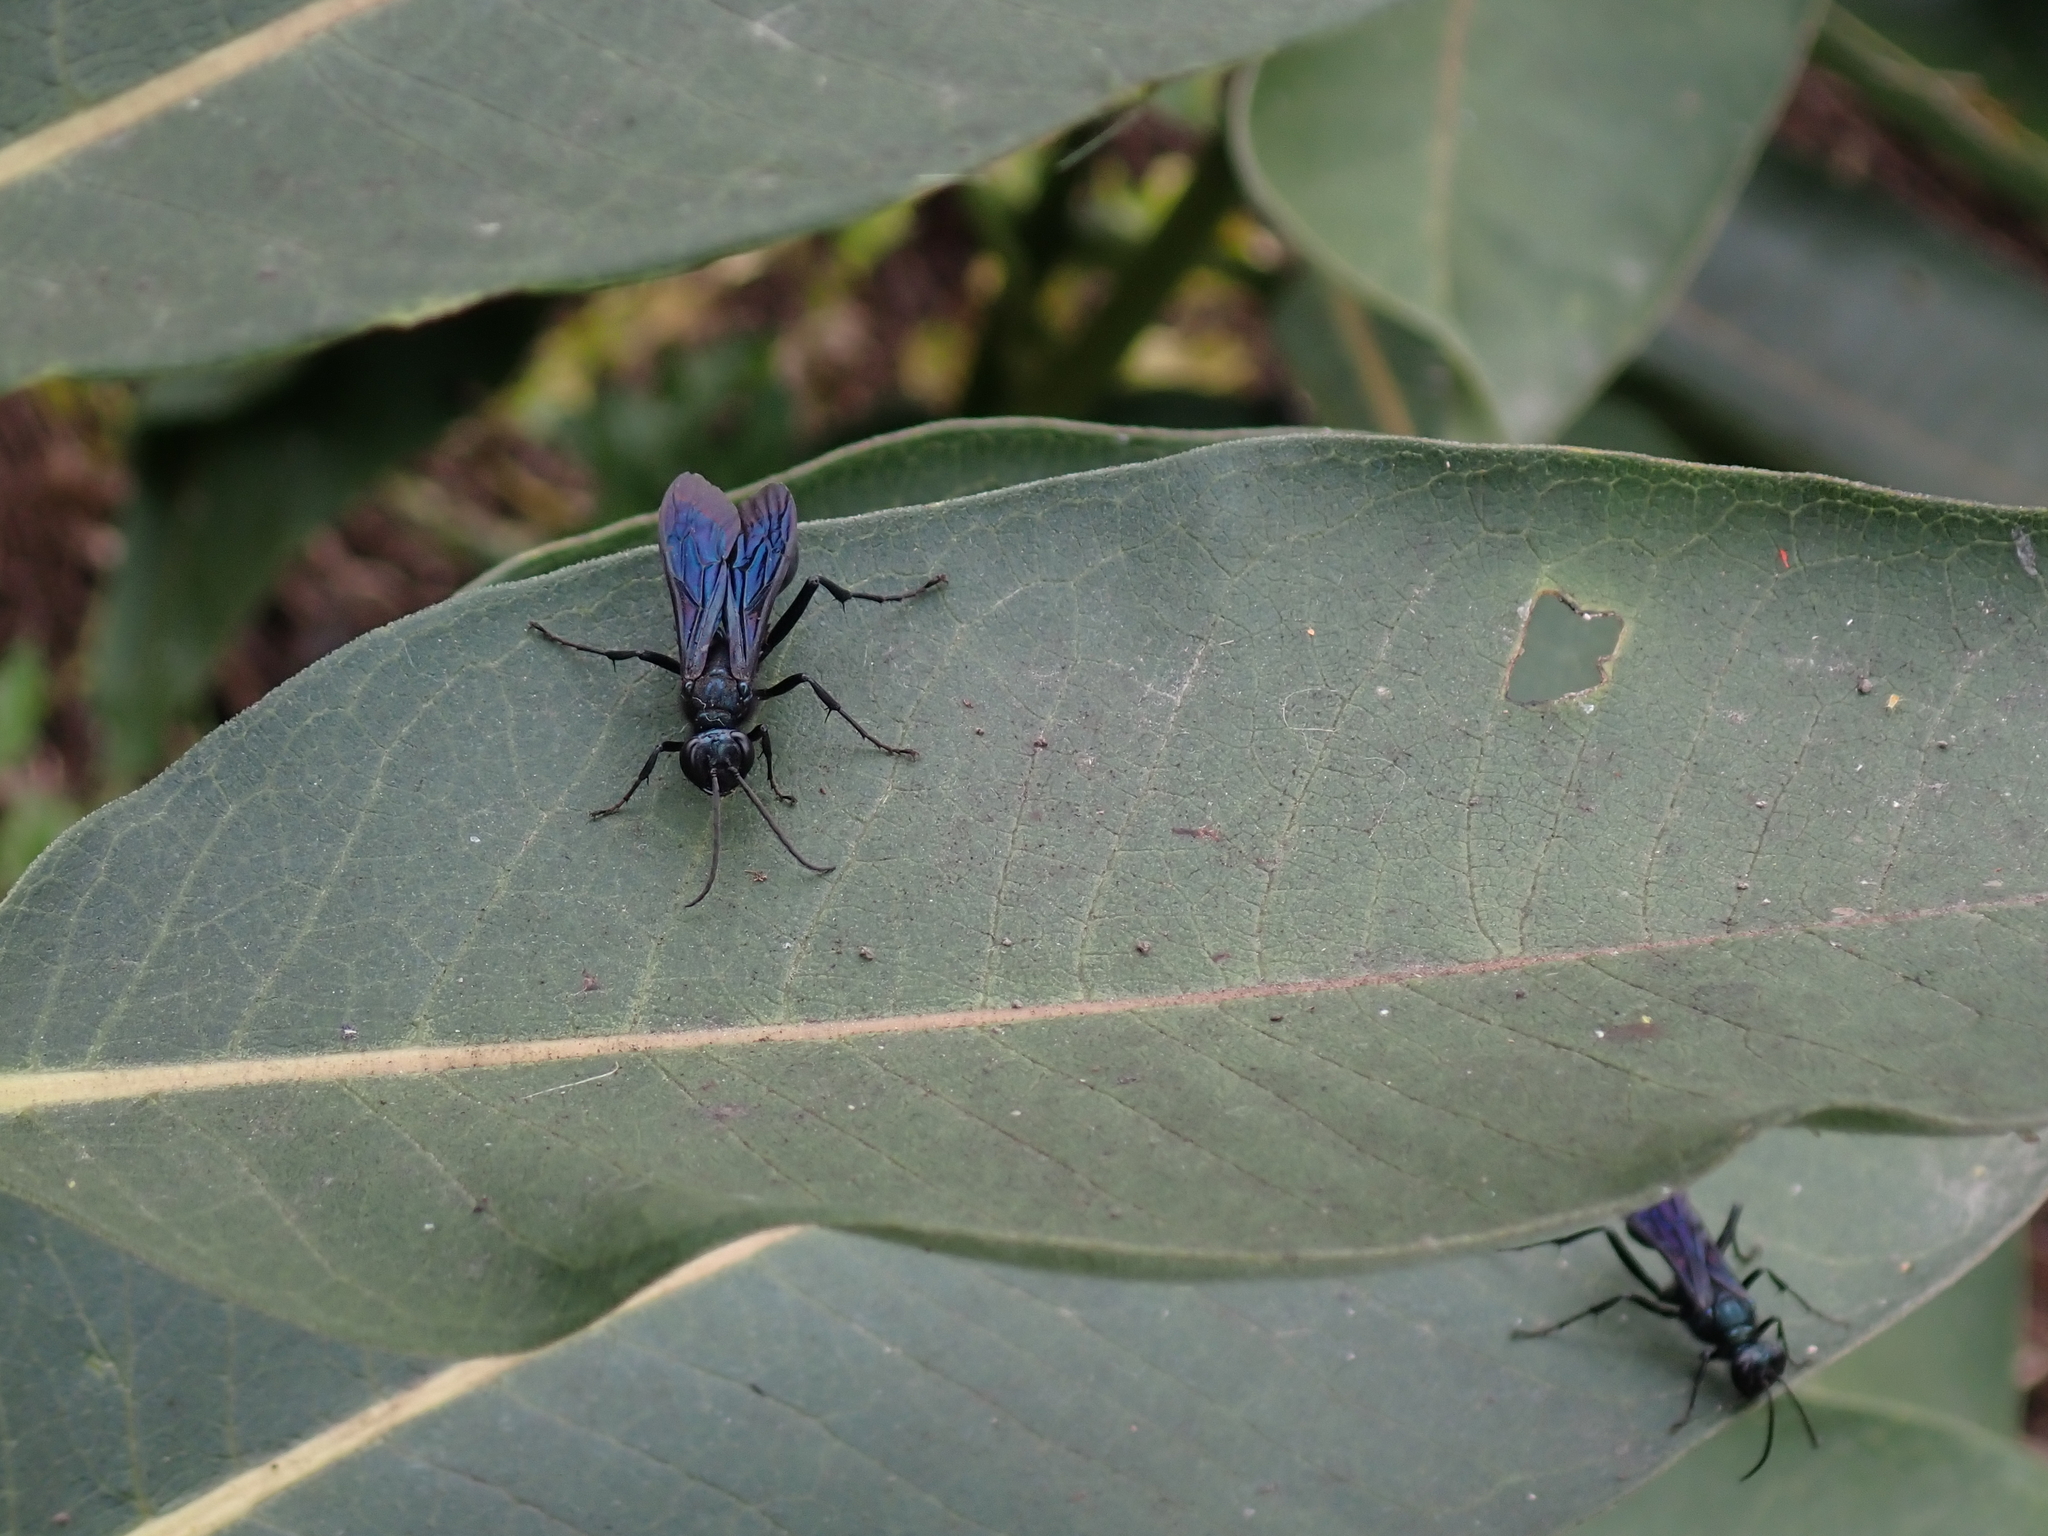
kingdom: Animalia
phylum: Arthropoda
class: Insecta
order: Hymenoptera
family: Sphecidae
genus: Chalybion
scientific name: Chalybion californicum
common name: Mud dauber
